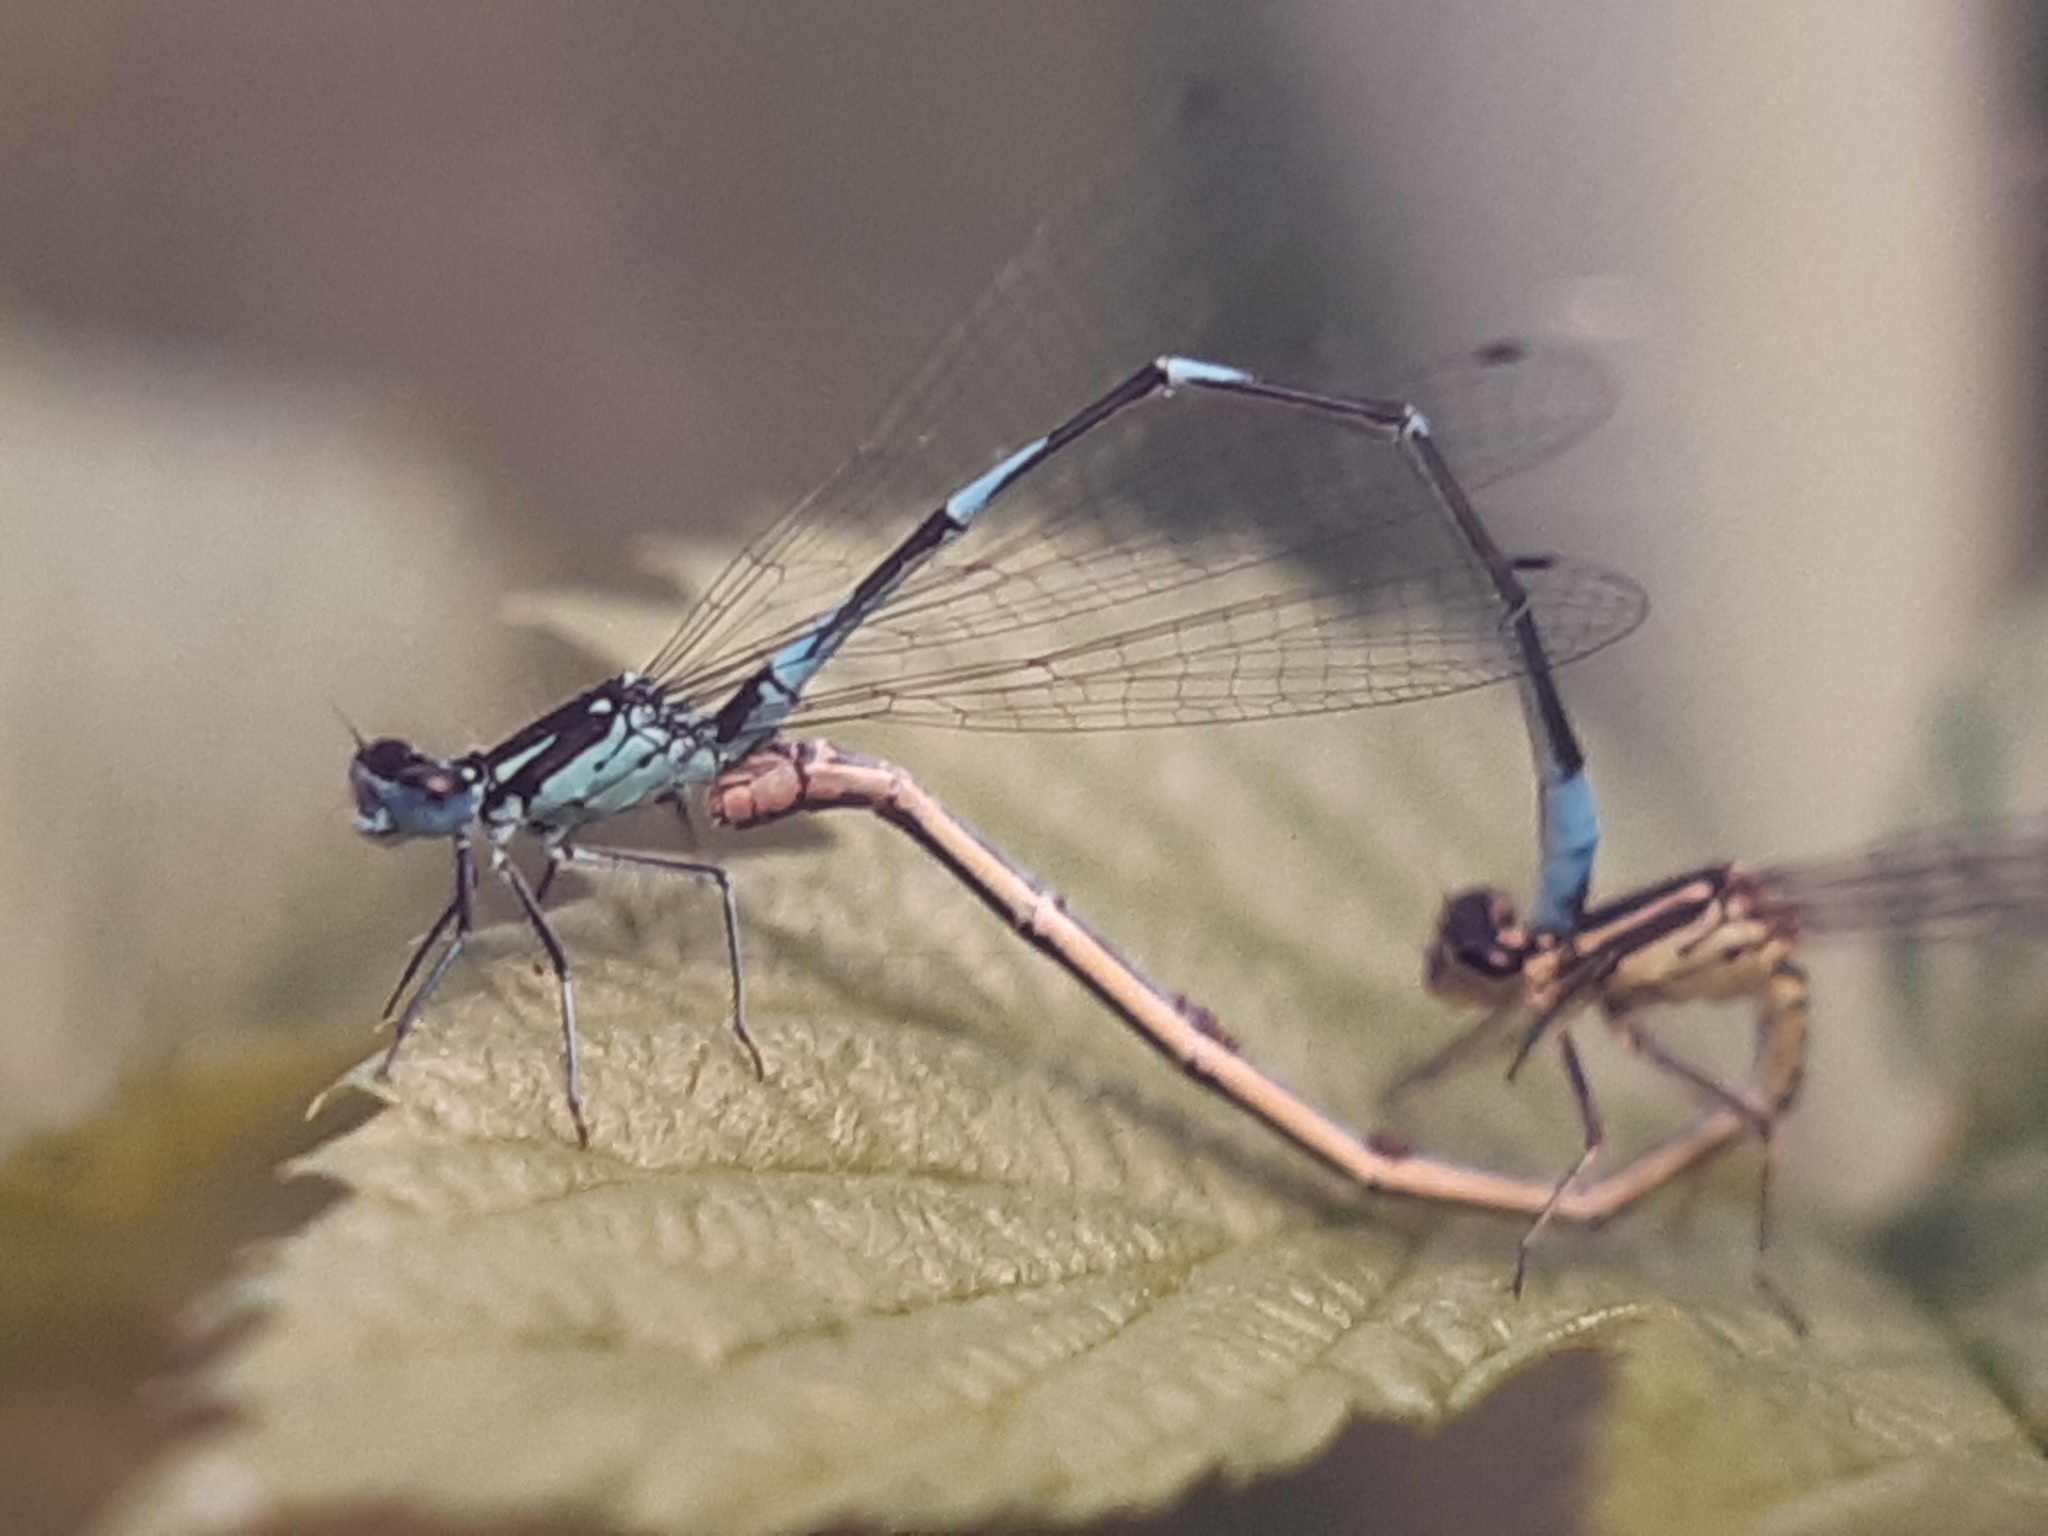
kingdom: Animalia
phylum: Arthropoda
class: Insecta
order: Odonata
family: Coenagrionidae
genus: Coenagrion
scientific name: Coenagrion pulchellum
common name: Variable bluet
